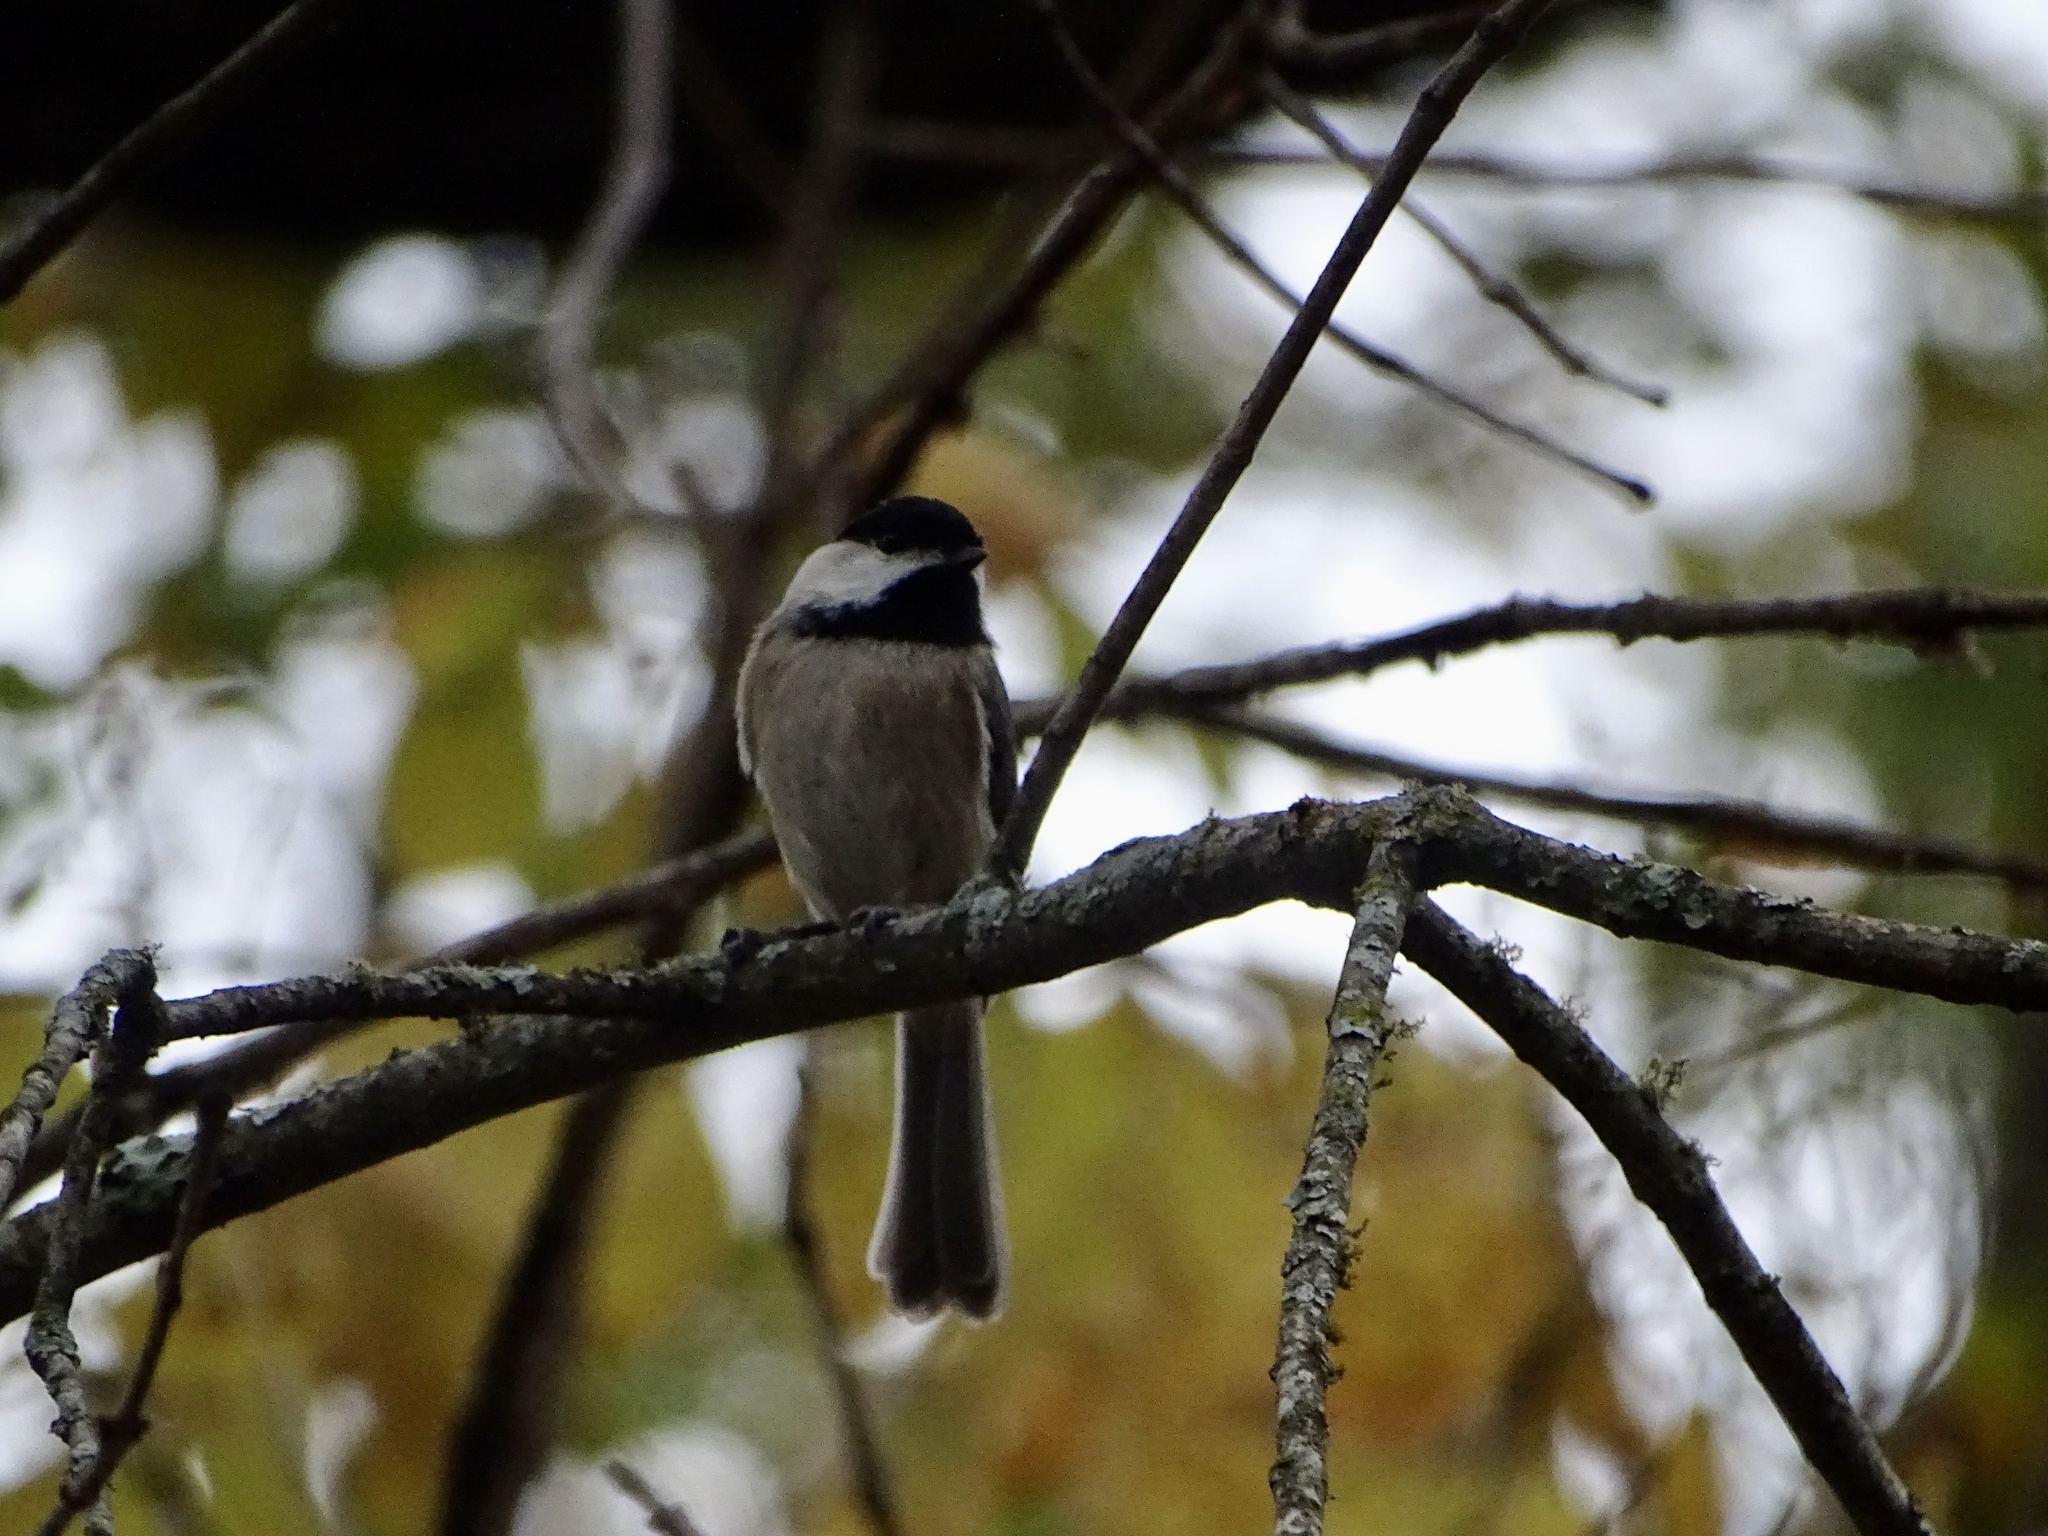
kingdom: Animalia
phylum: Chordata
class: Aves
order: Passeriformes
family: Paridae
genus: Poecile
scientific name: Poecile carolinensis
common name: Carolina chickadee
